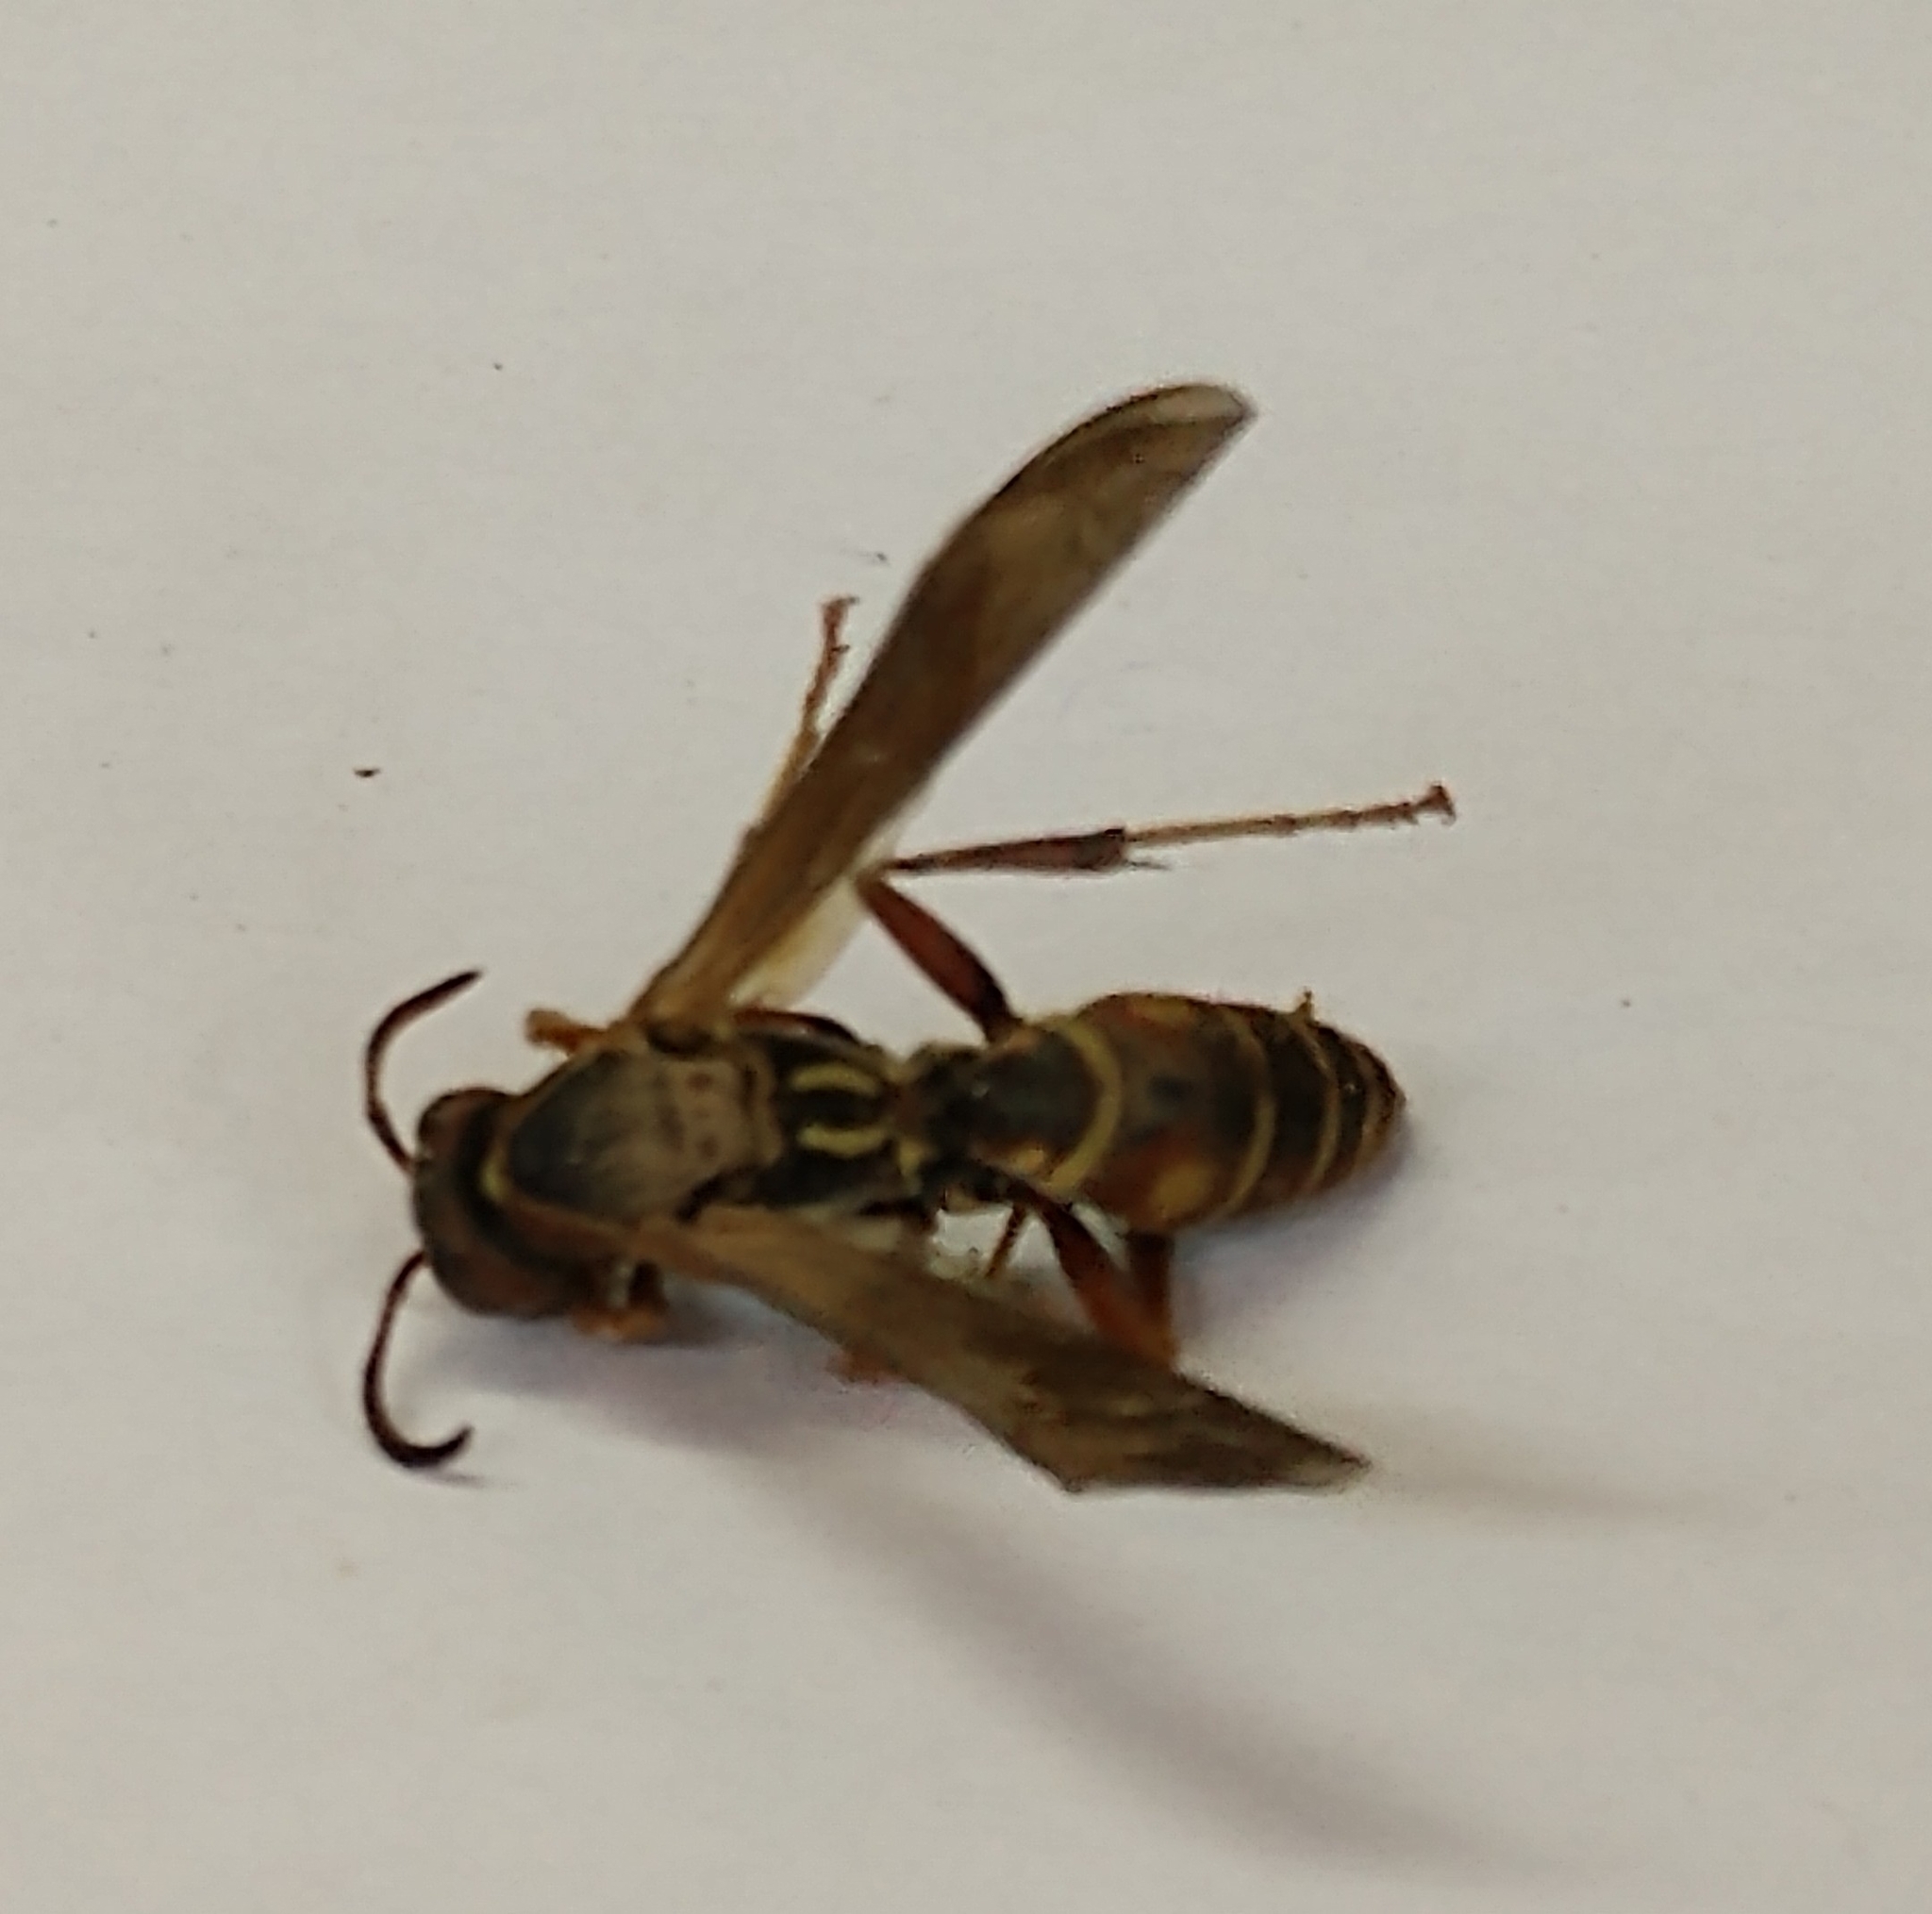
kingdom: Animalia
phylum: Arthropoda
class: Insecta
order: Hymenoptera
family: Eumenidae
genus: Polistes
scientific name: Polistes fuscatus
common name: Dark paper wasp
